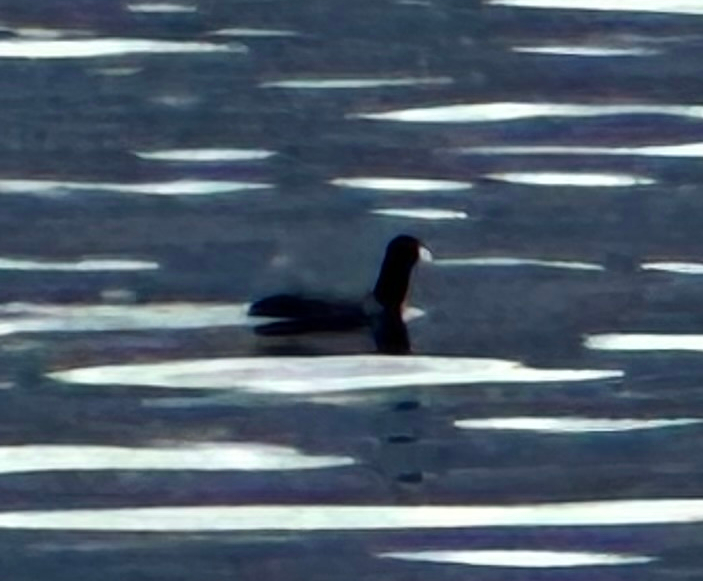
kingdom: Animalia
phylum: Chordata
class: Aves
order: Gruiformes
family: Rallidae
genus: Fulica
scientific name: Fulica americana
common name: American coot
